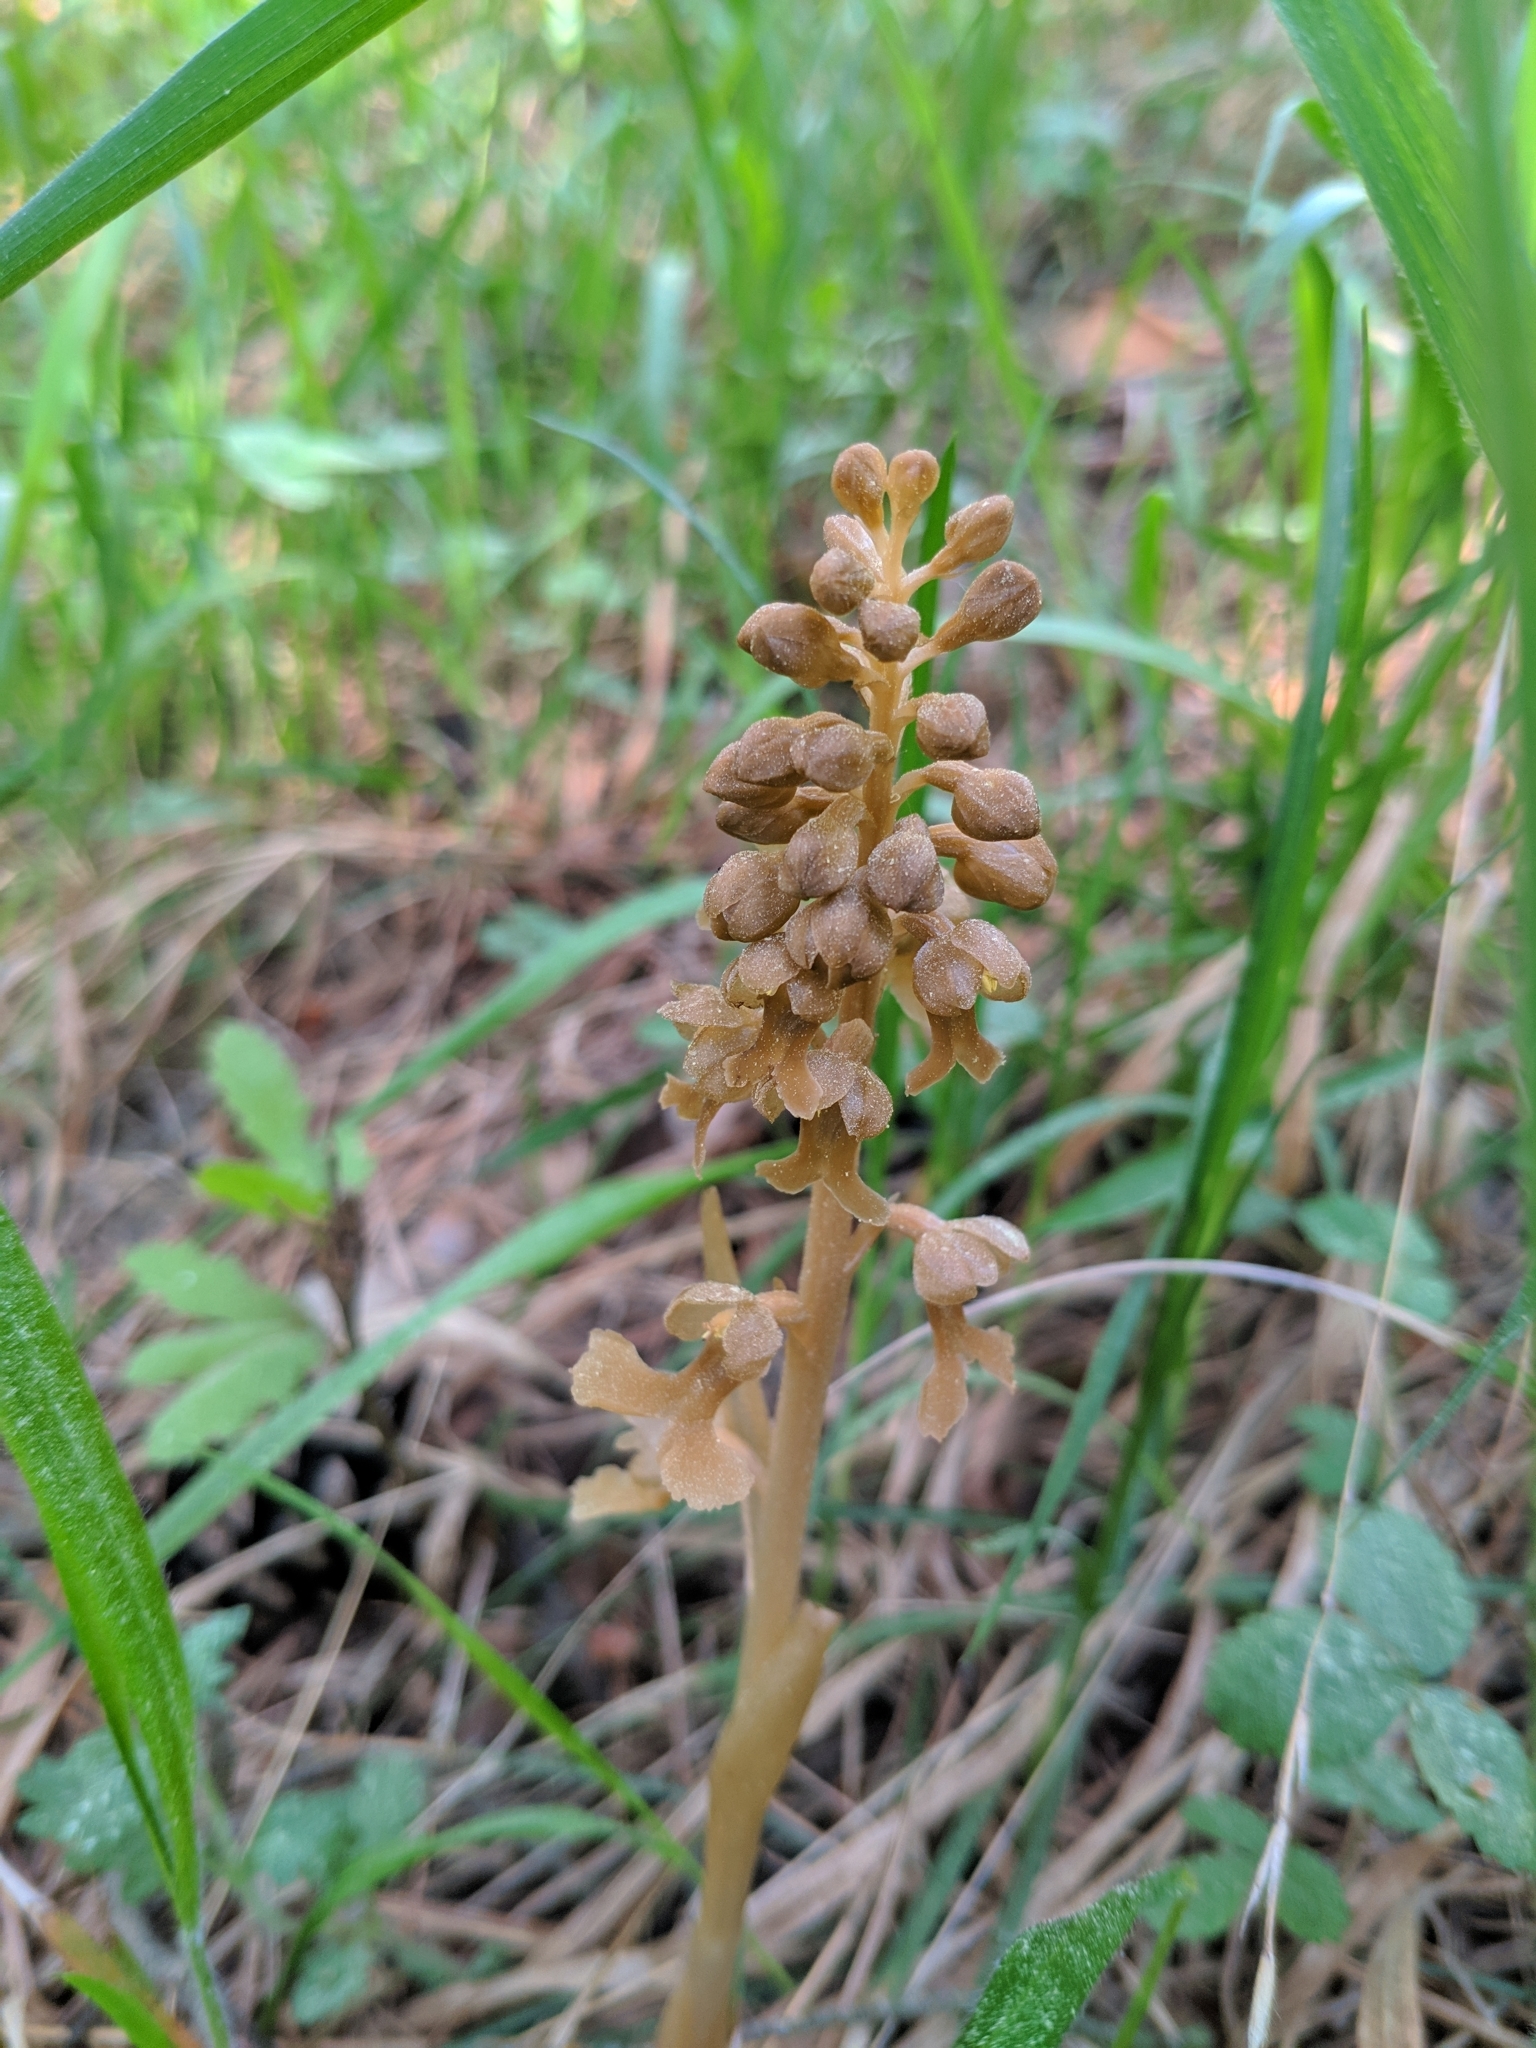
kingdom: Plantae
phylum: Tracheophyta
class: Liliopsida
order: Asparagales
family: Orchidaceae
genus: Neottia
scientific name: Neottia nidus-avis
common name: Bird's-nest orchid
